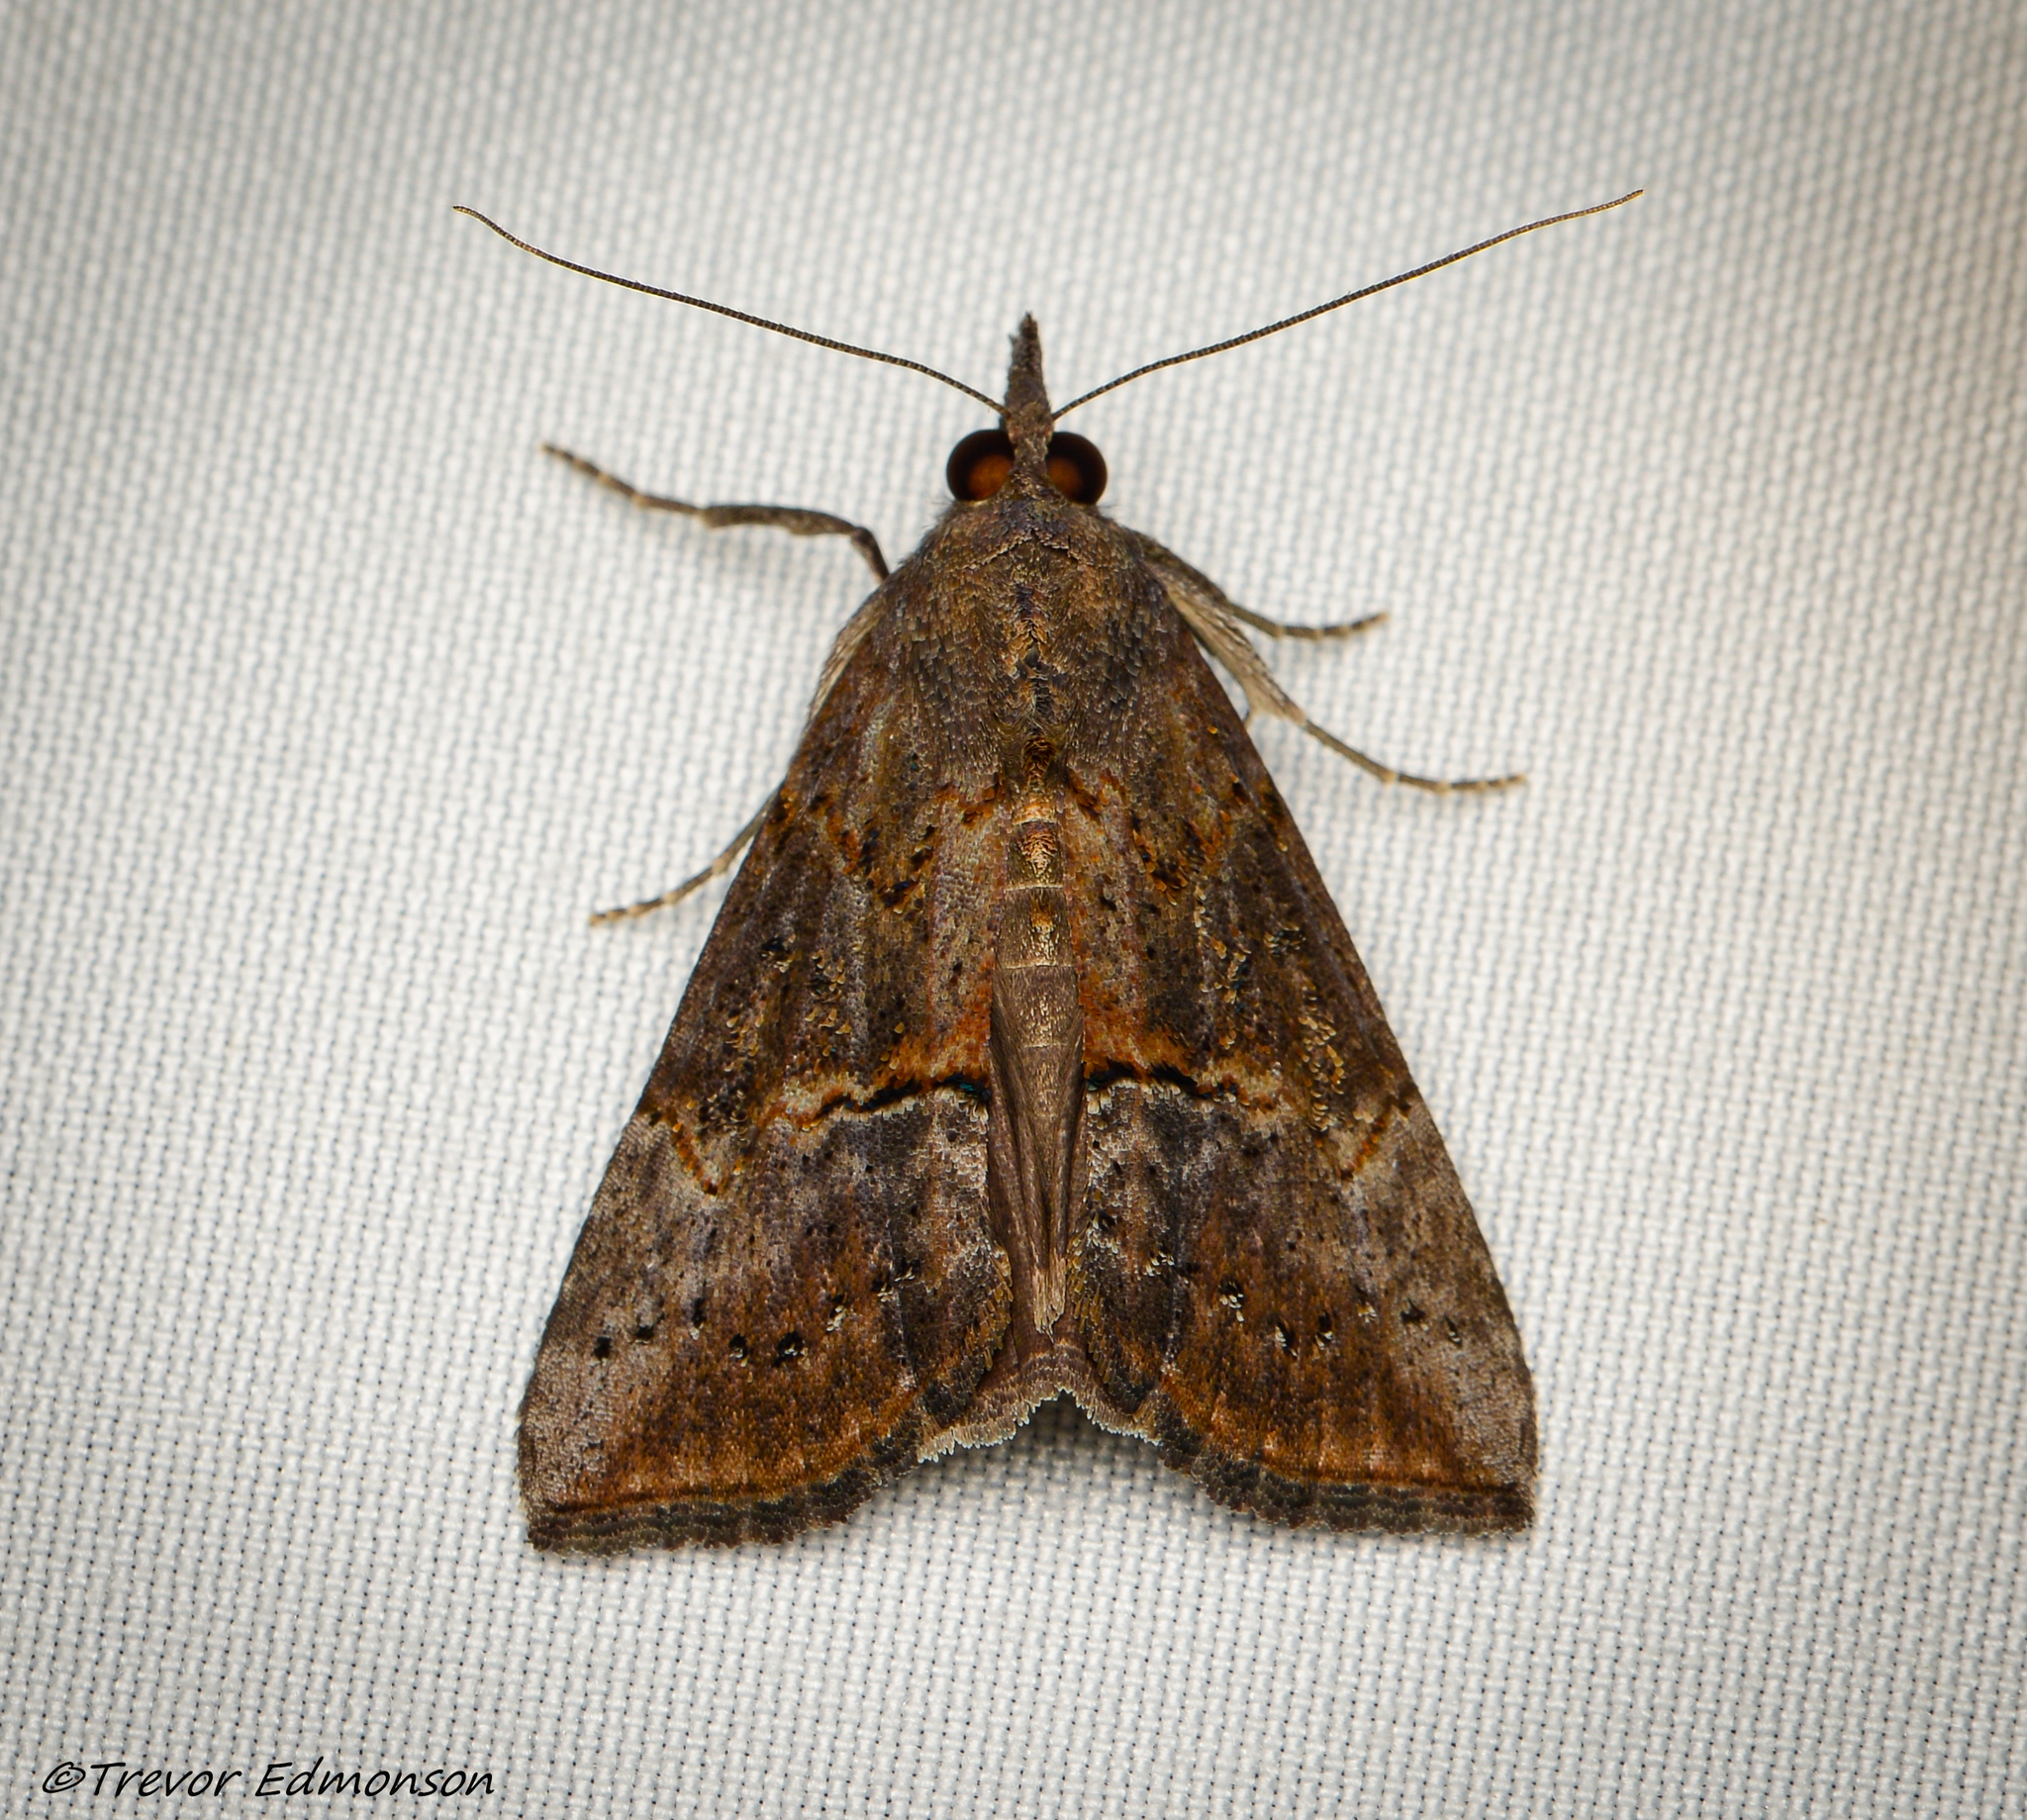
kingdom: Animalia
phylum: Arthropoda
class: Insecta
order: Lepidoptera
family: Erebidae
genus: Hypena
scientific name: Hypena scabra
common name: Green cloverworm
